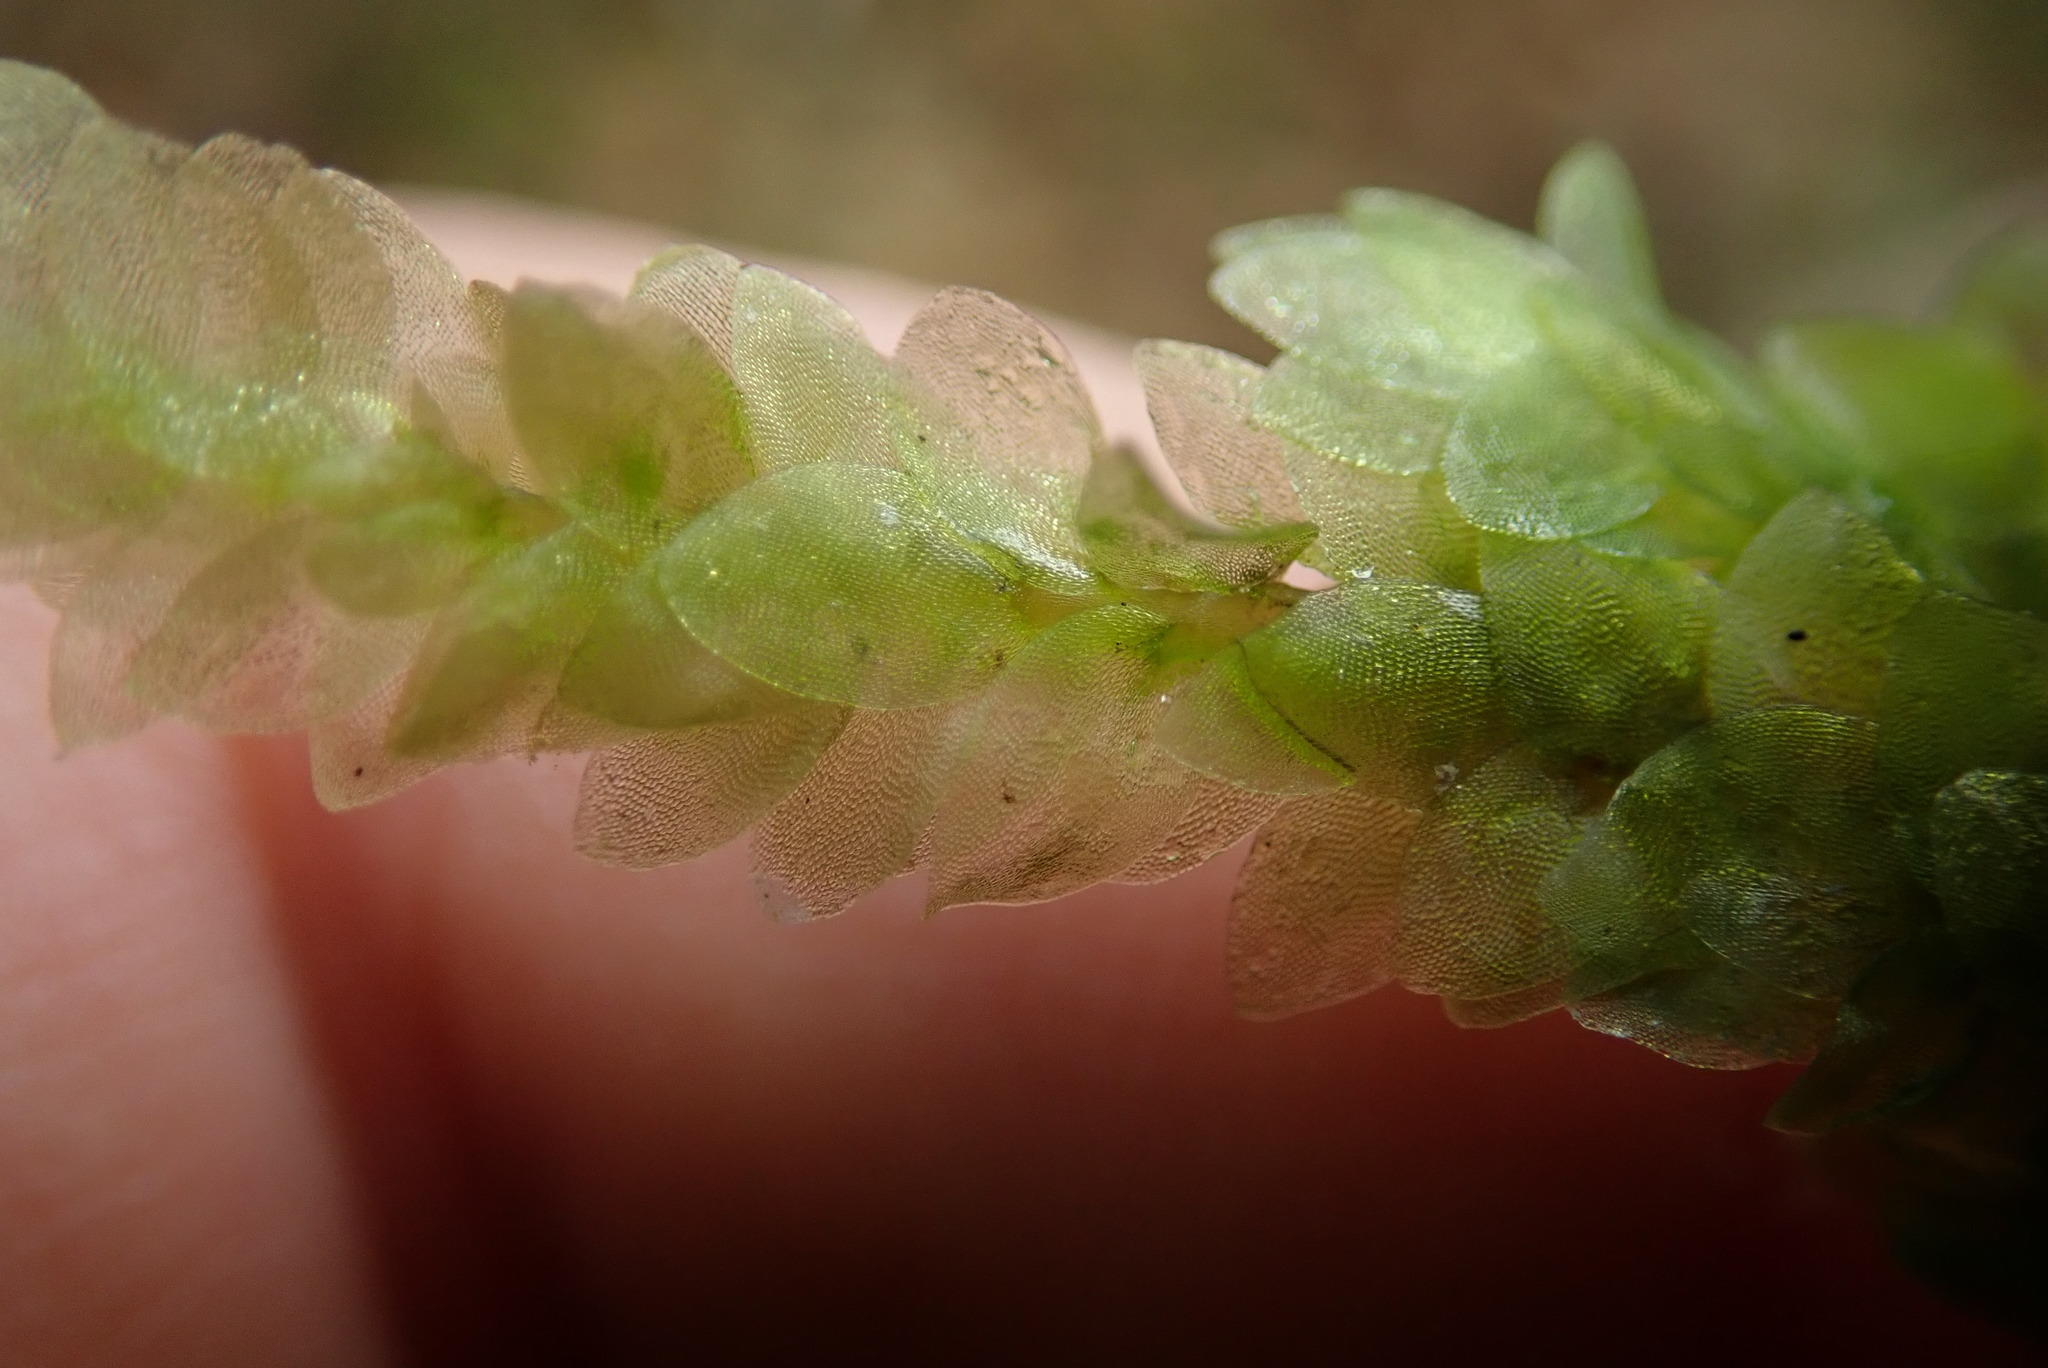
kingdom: Plantae
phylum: Bryophyta
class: Bryopsida
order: Hookeriales
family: Hookeriaceae
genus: Hookeria
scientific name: Hookeria lucens
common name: Shining hookeria
